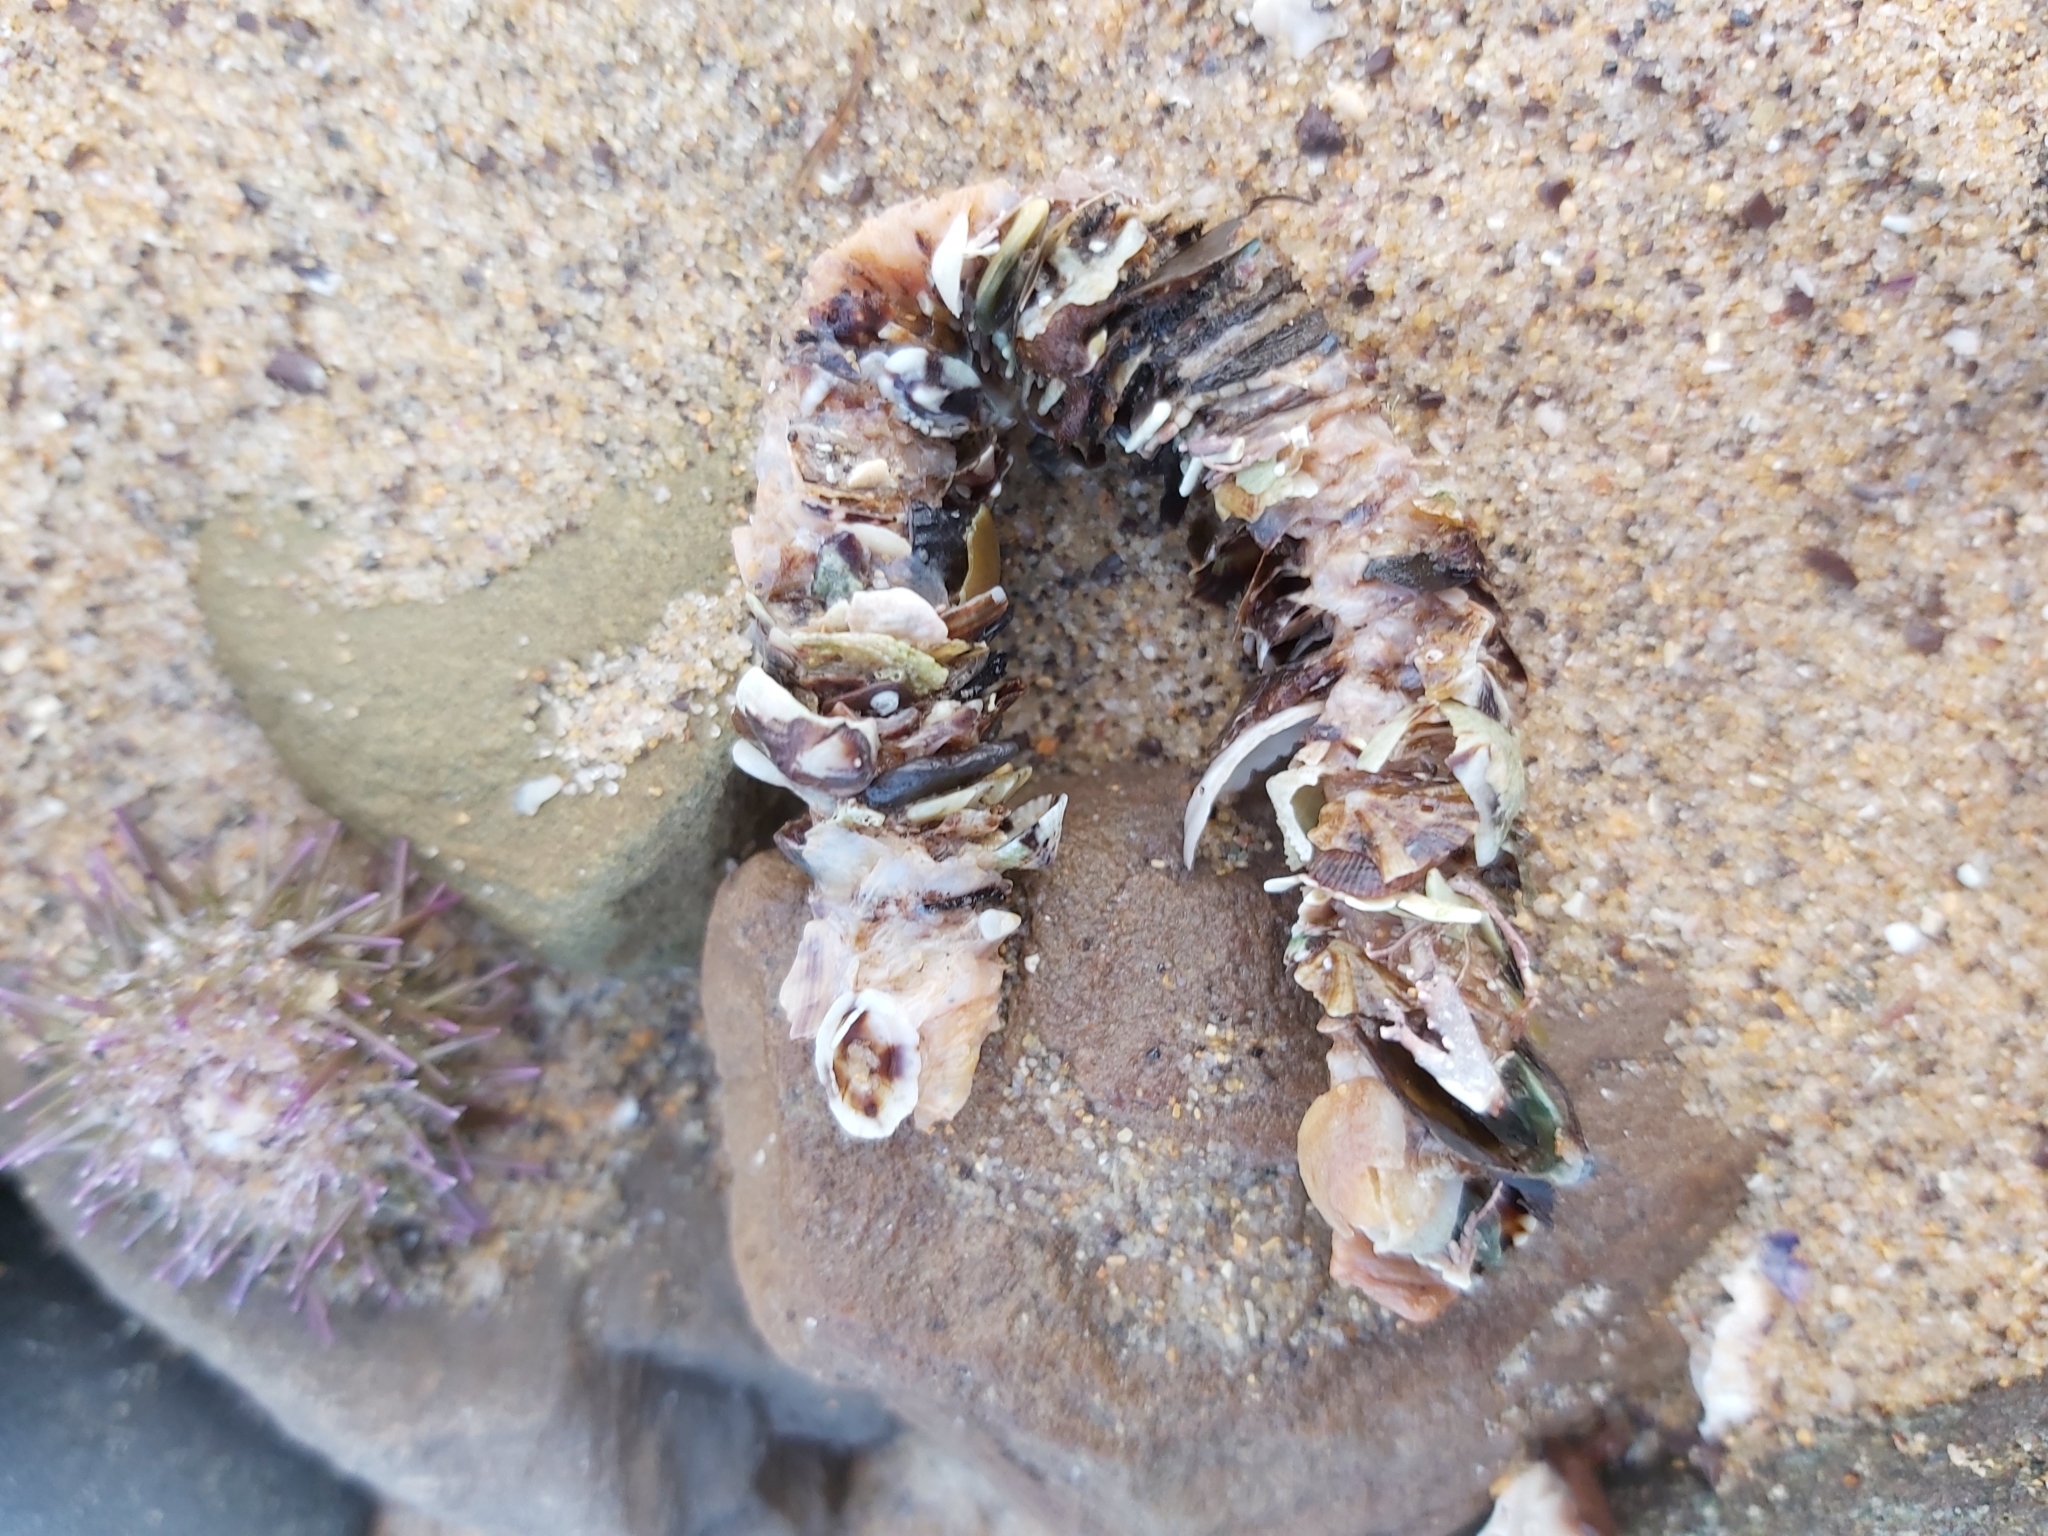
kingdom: Animalia
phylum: Annelida
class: Polychaeta
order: Eunicida
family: Onuphidae
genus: Diopatra
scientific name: Diopatra dentata
